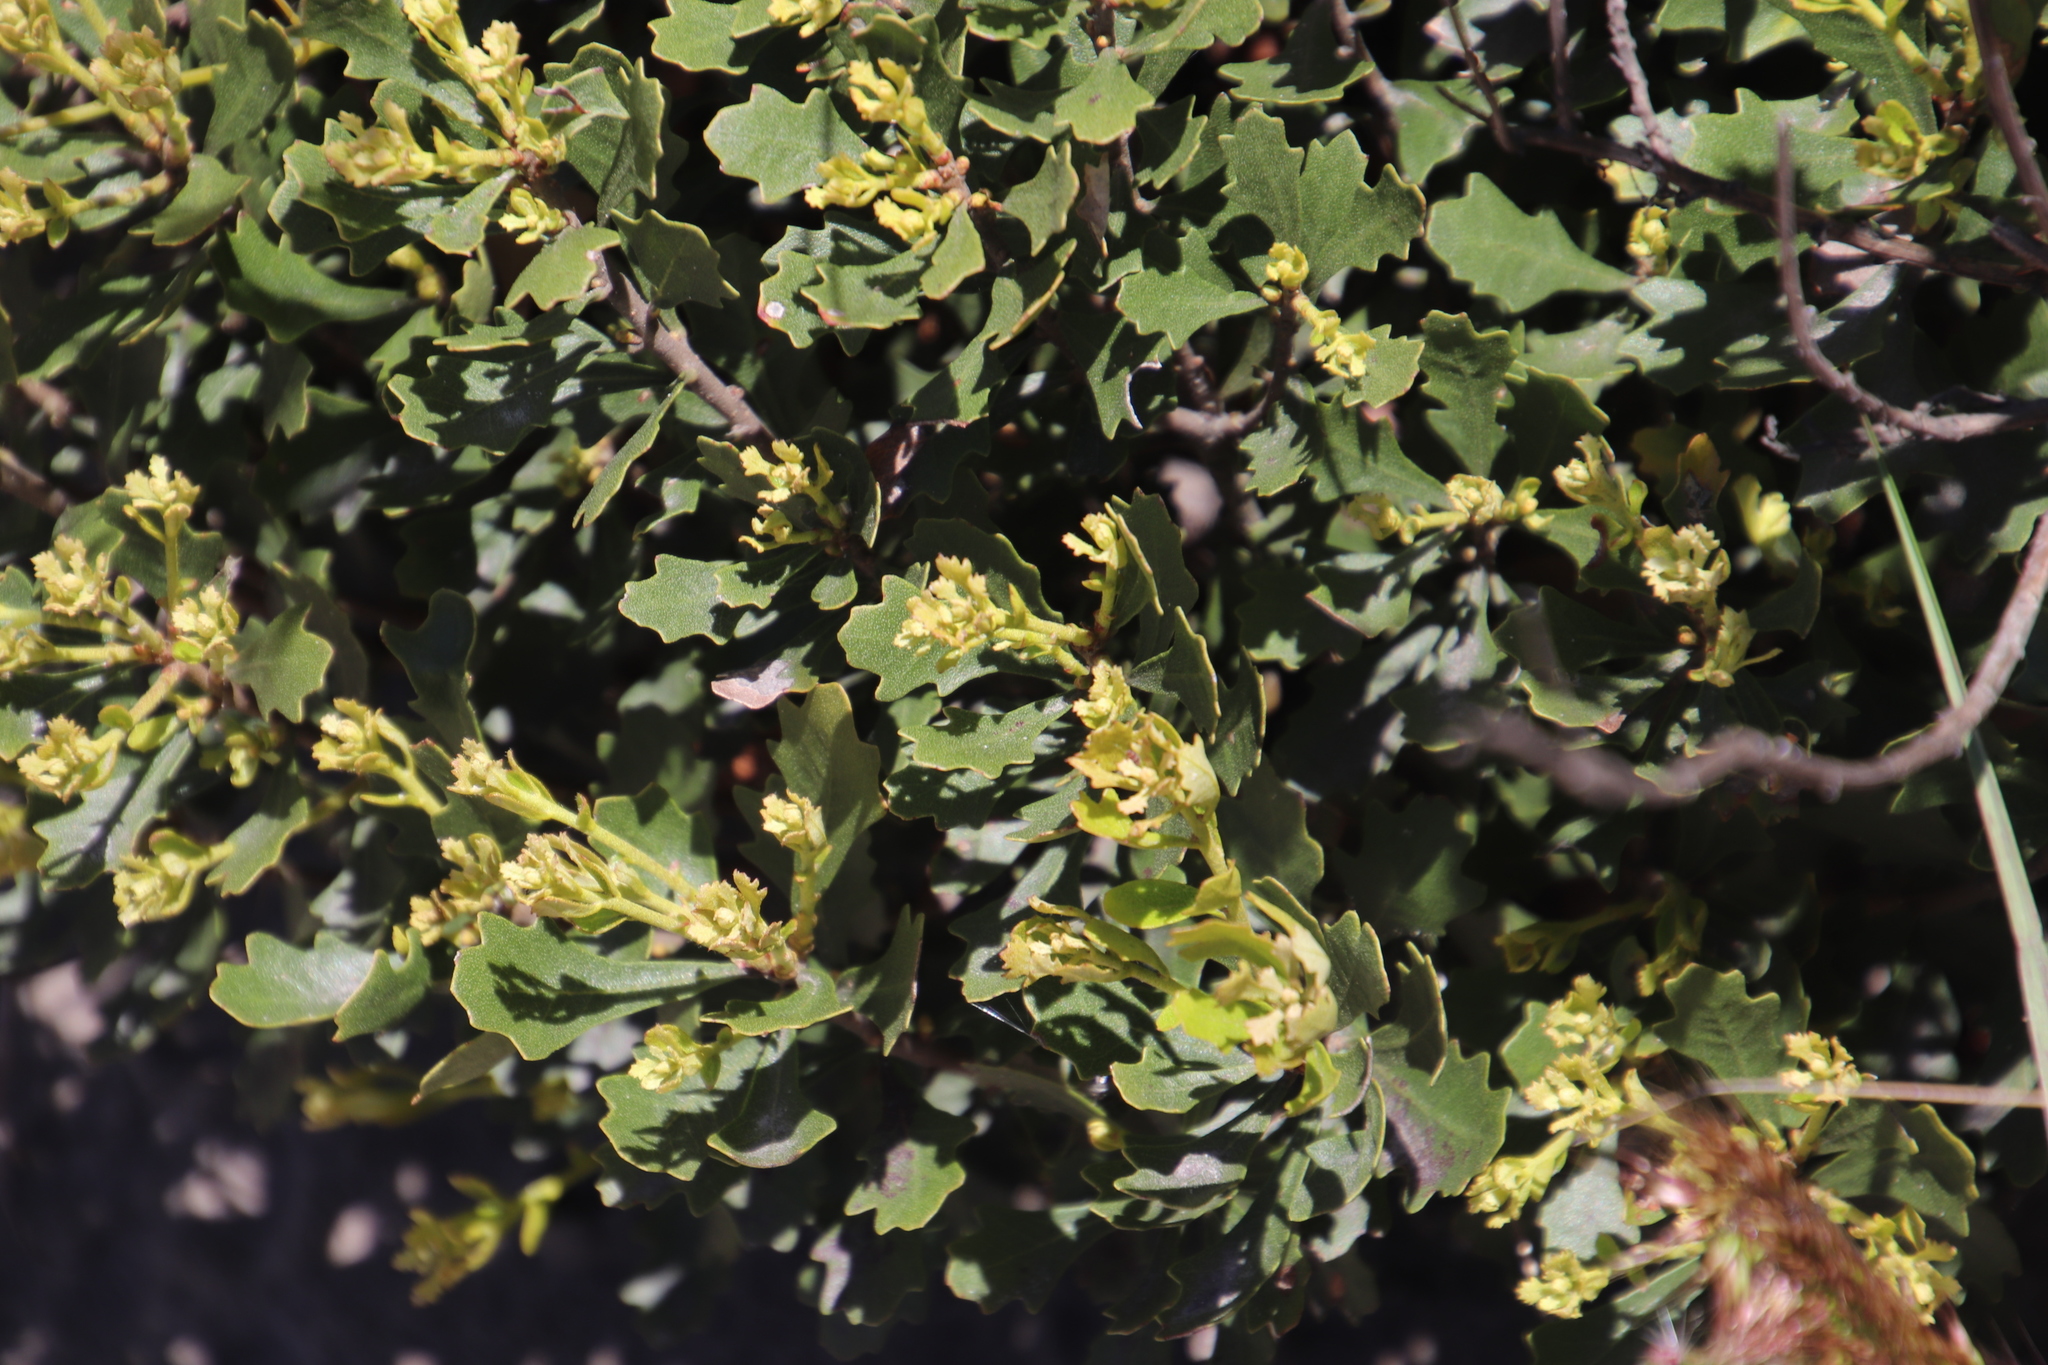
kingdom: Plantae
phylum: Tracheophyta
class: Magnoliopsida
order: Fagales
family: Myricaceae
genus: Morella
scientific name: Morella quercifolia
